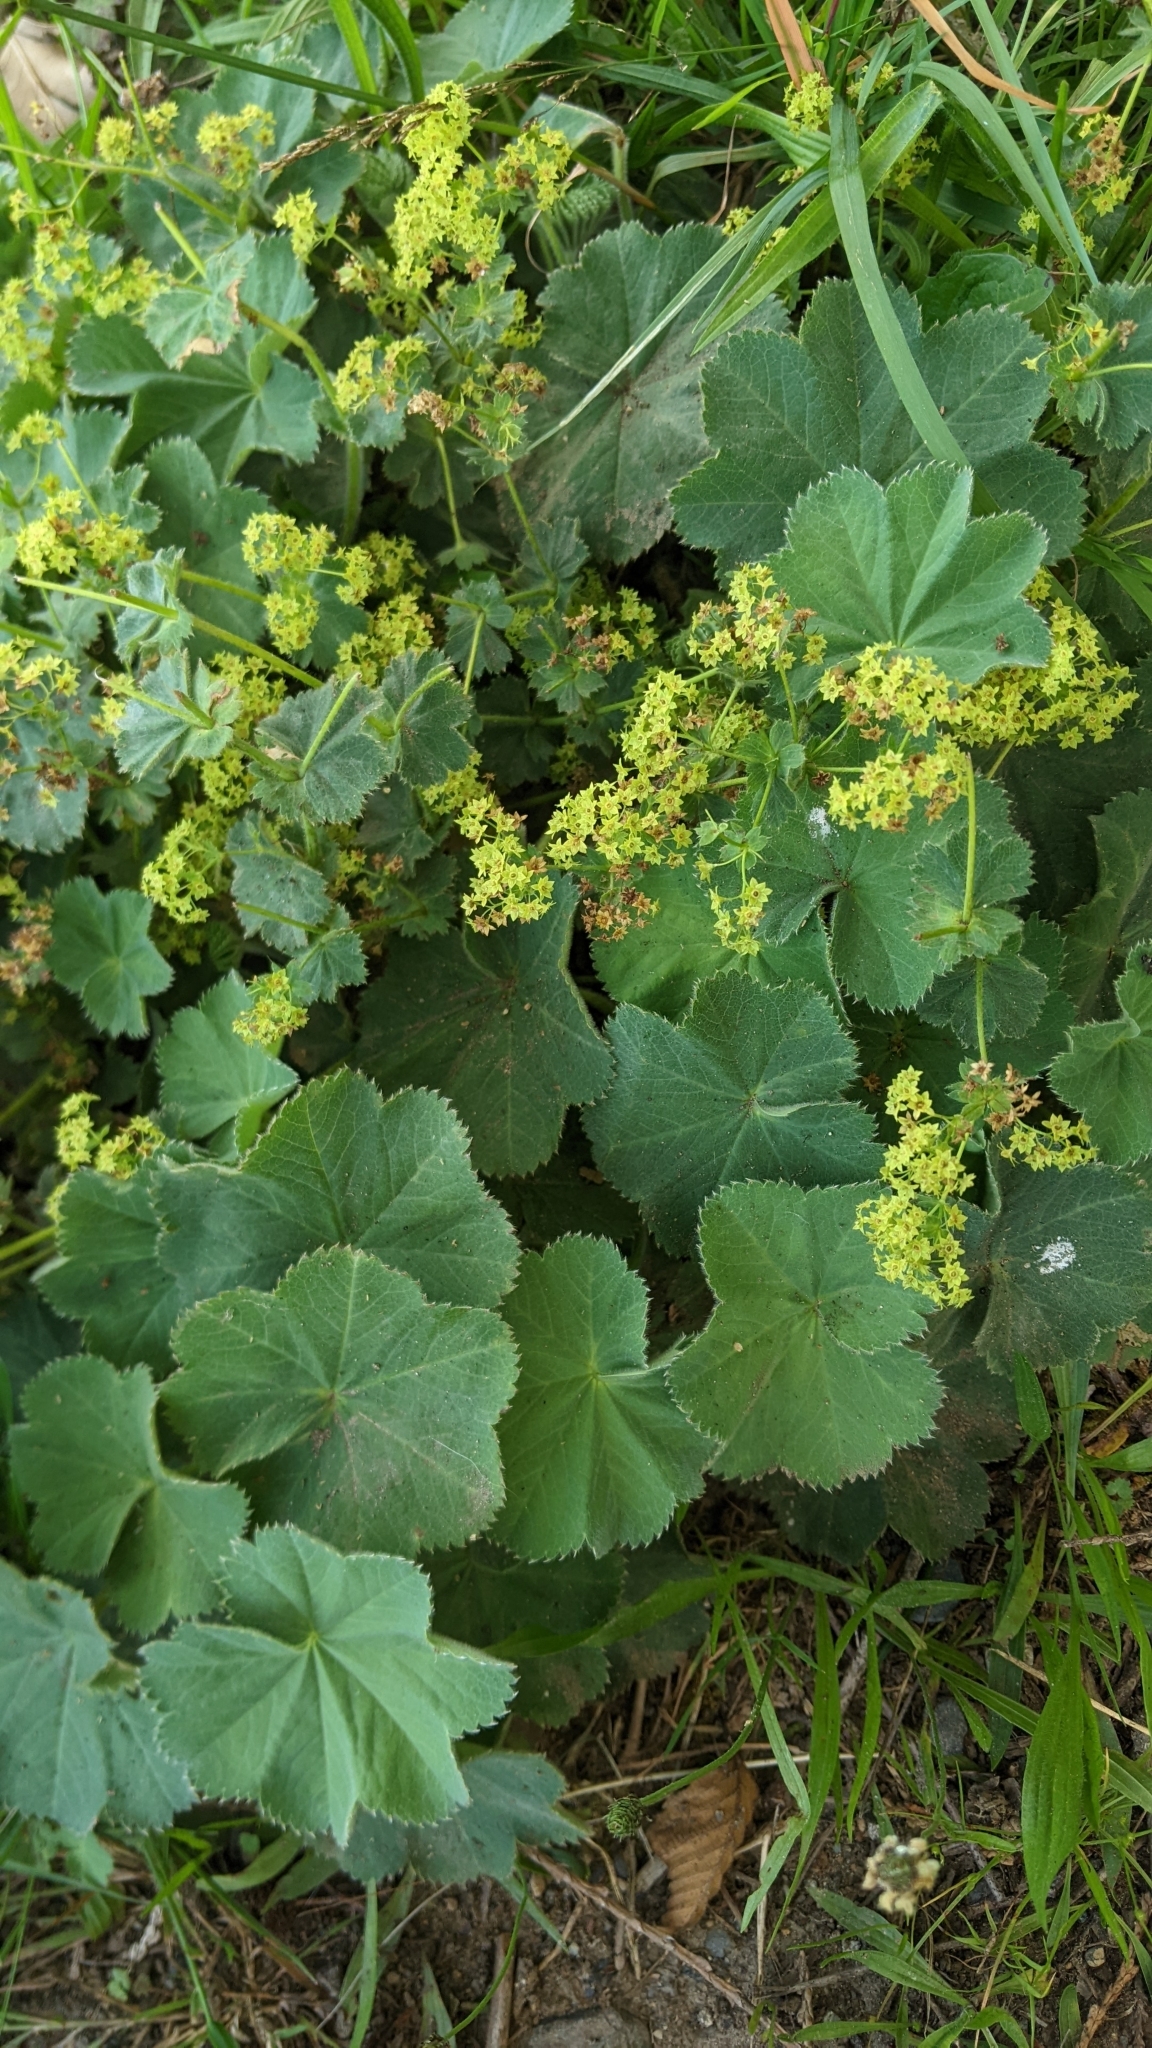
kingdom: Plantae
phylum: Tracheophyta
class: Magnoliopsida
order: Rosales
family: Rosaceae
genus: Alchemilla
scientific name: Alchemilla mollis
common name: Lady's-mantle
